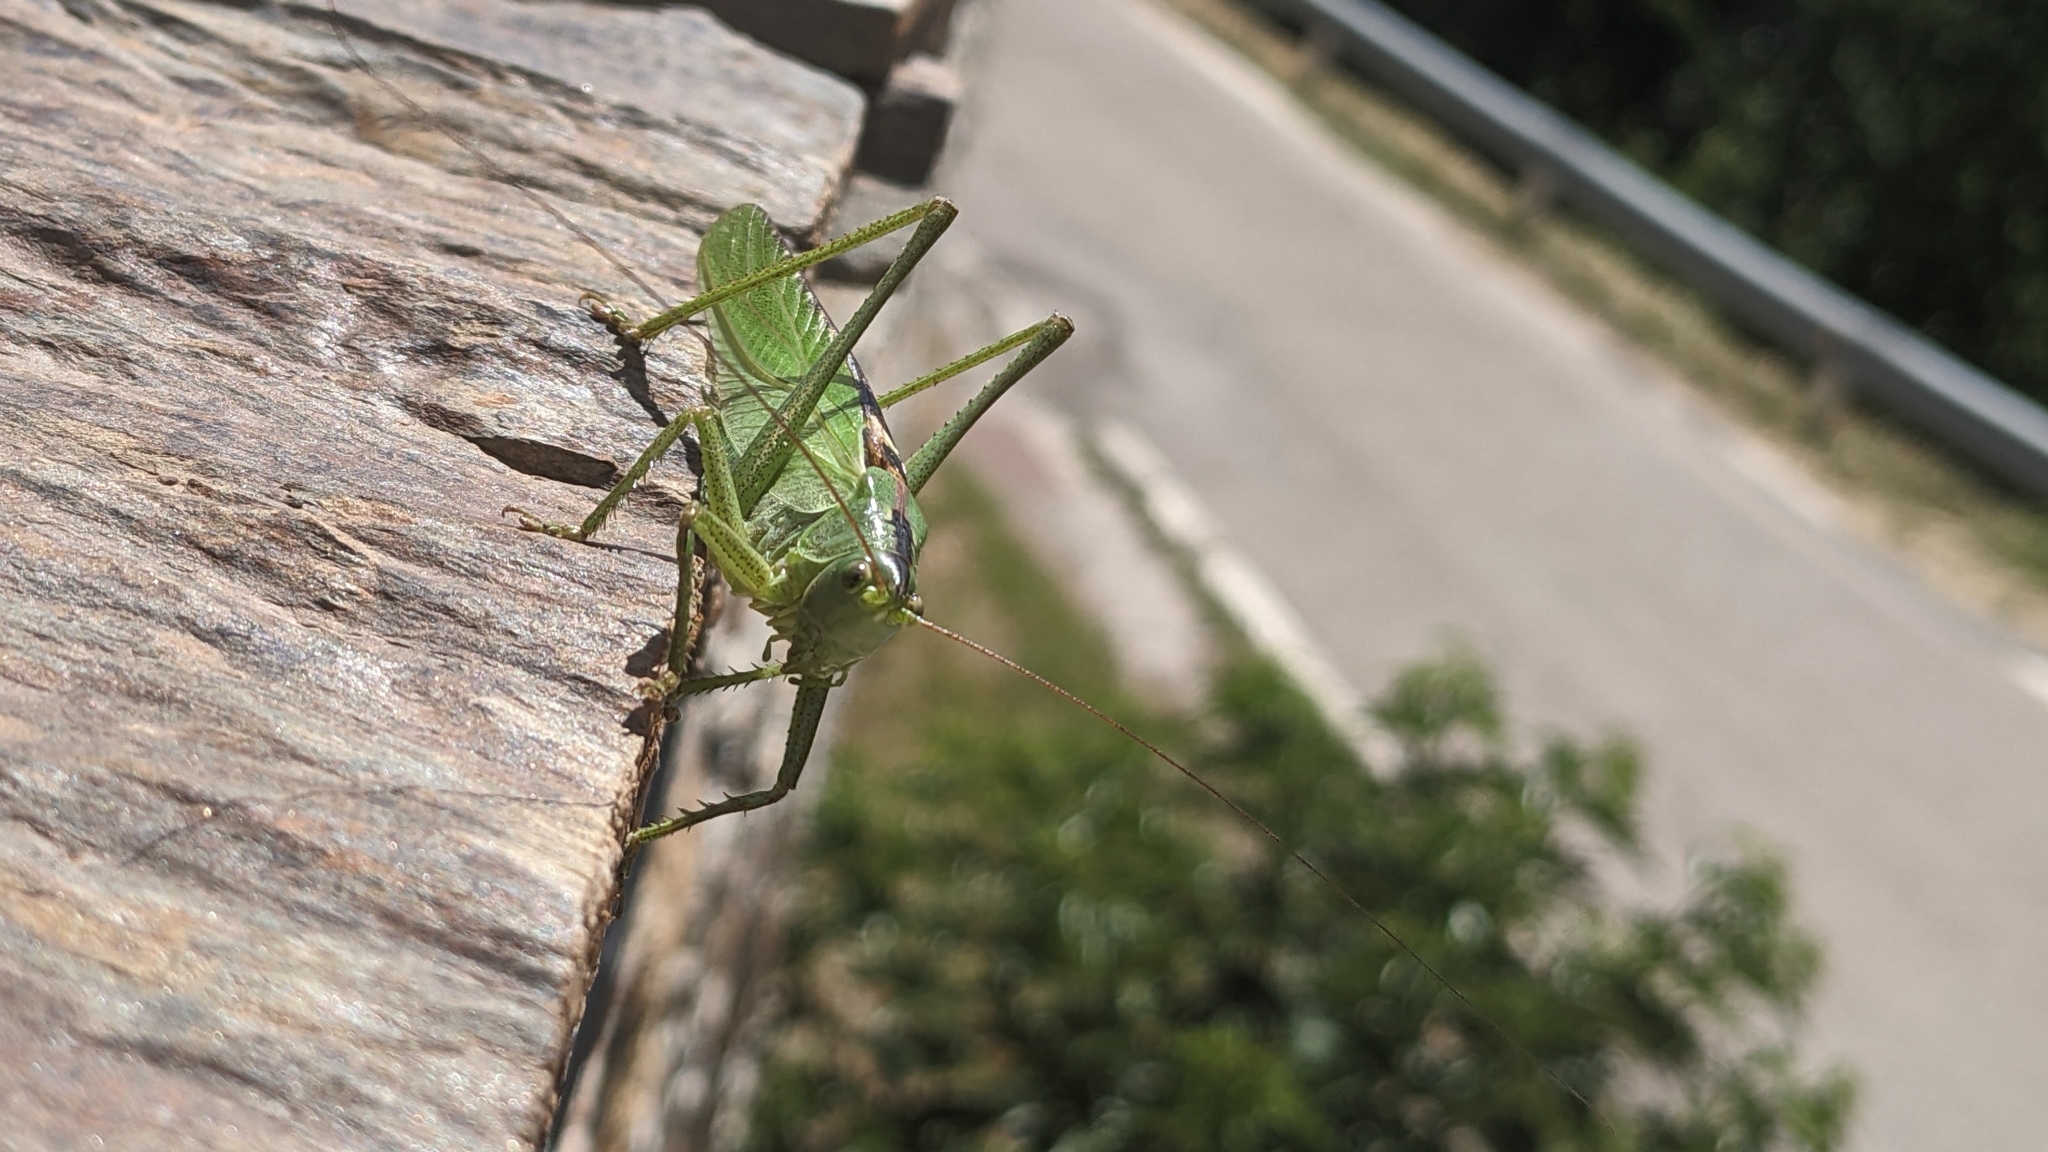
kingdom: Animalia
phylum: Arthropoda
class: Insecta
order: Orthoptera
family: Tettigoniidae
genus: Tettigonia
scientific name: Tettigonia viridissima
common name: Great green bush-cricket
